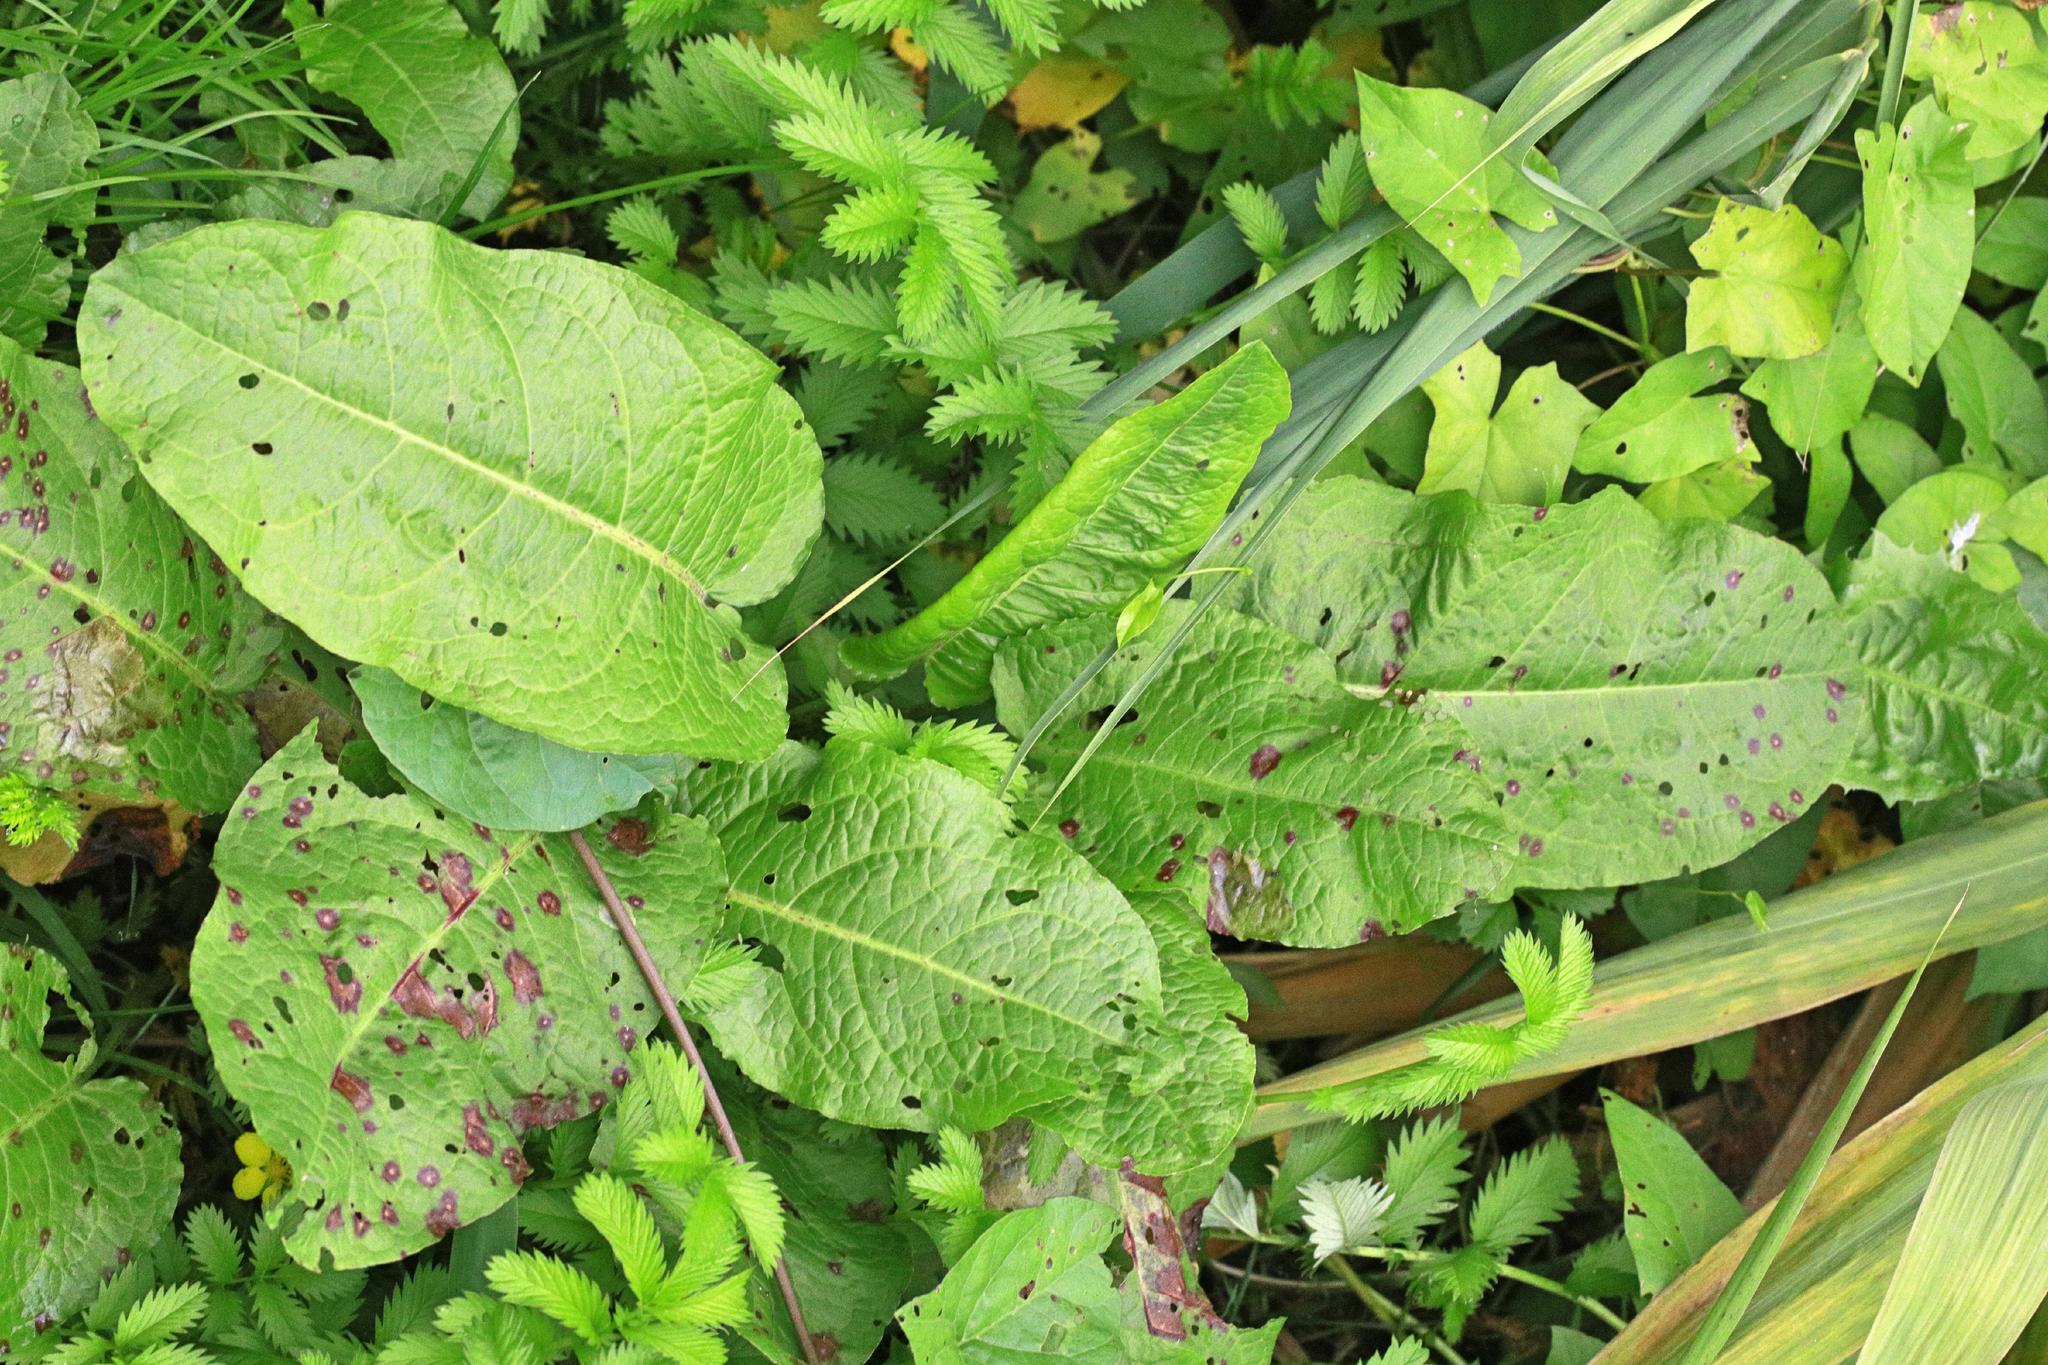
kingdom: Plantae
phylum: Tracheophyta
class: Magnoliopsida
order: Caryophyllales
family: Polygonaceae
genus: Rumex
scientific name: Rumex obtusifolius
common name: Bitter dock
